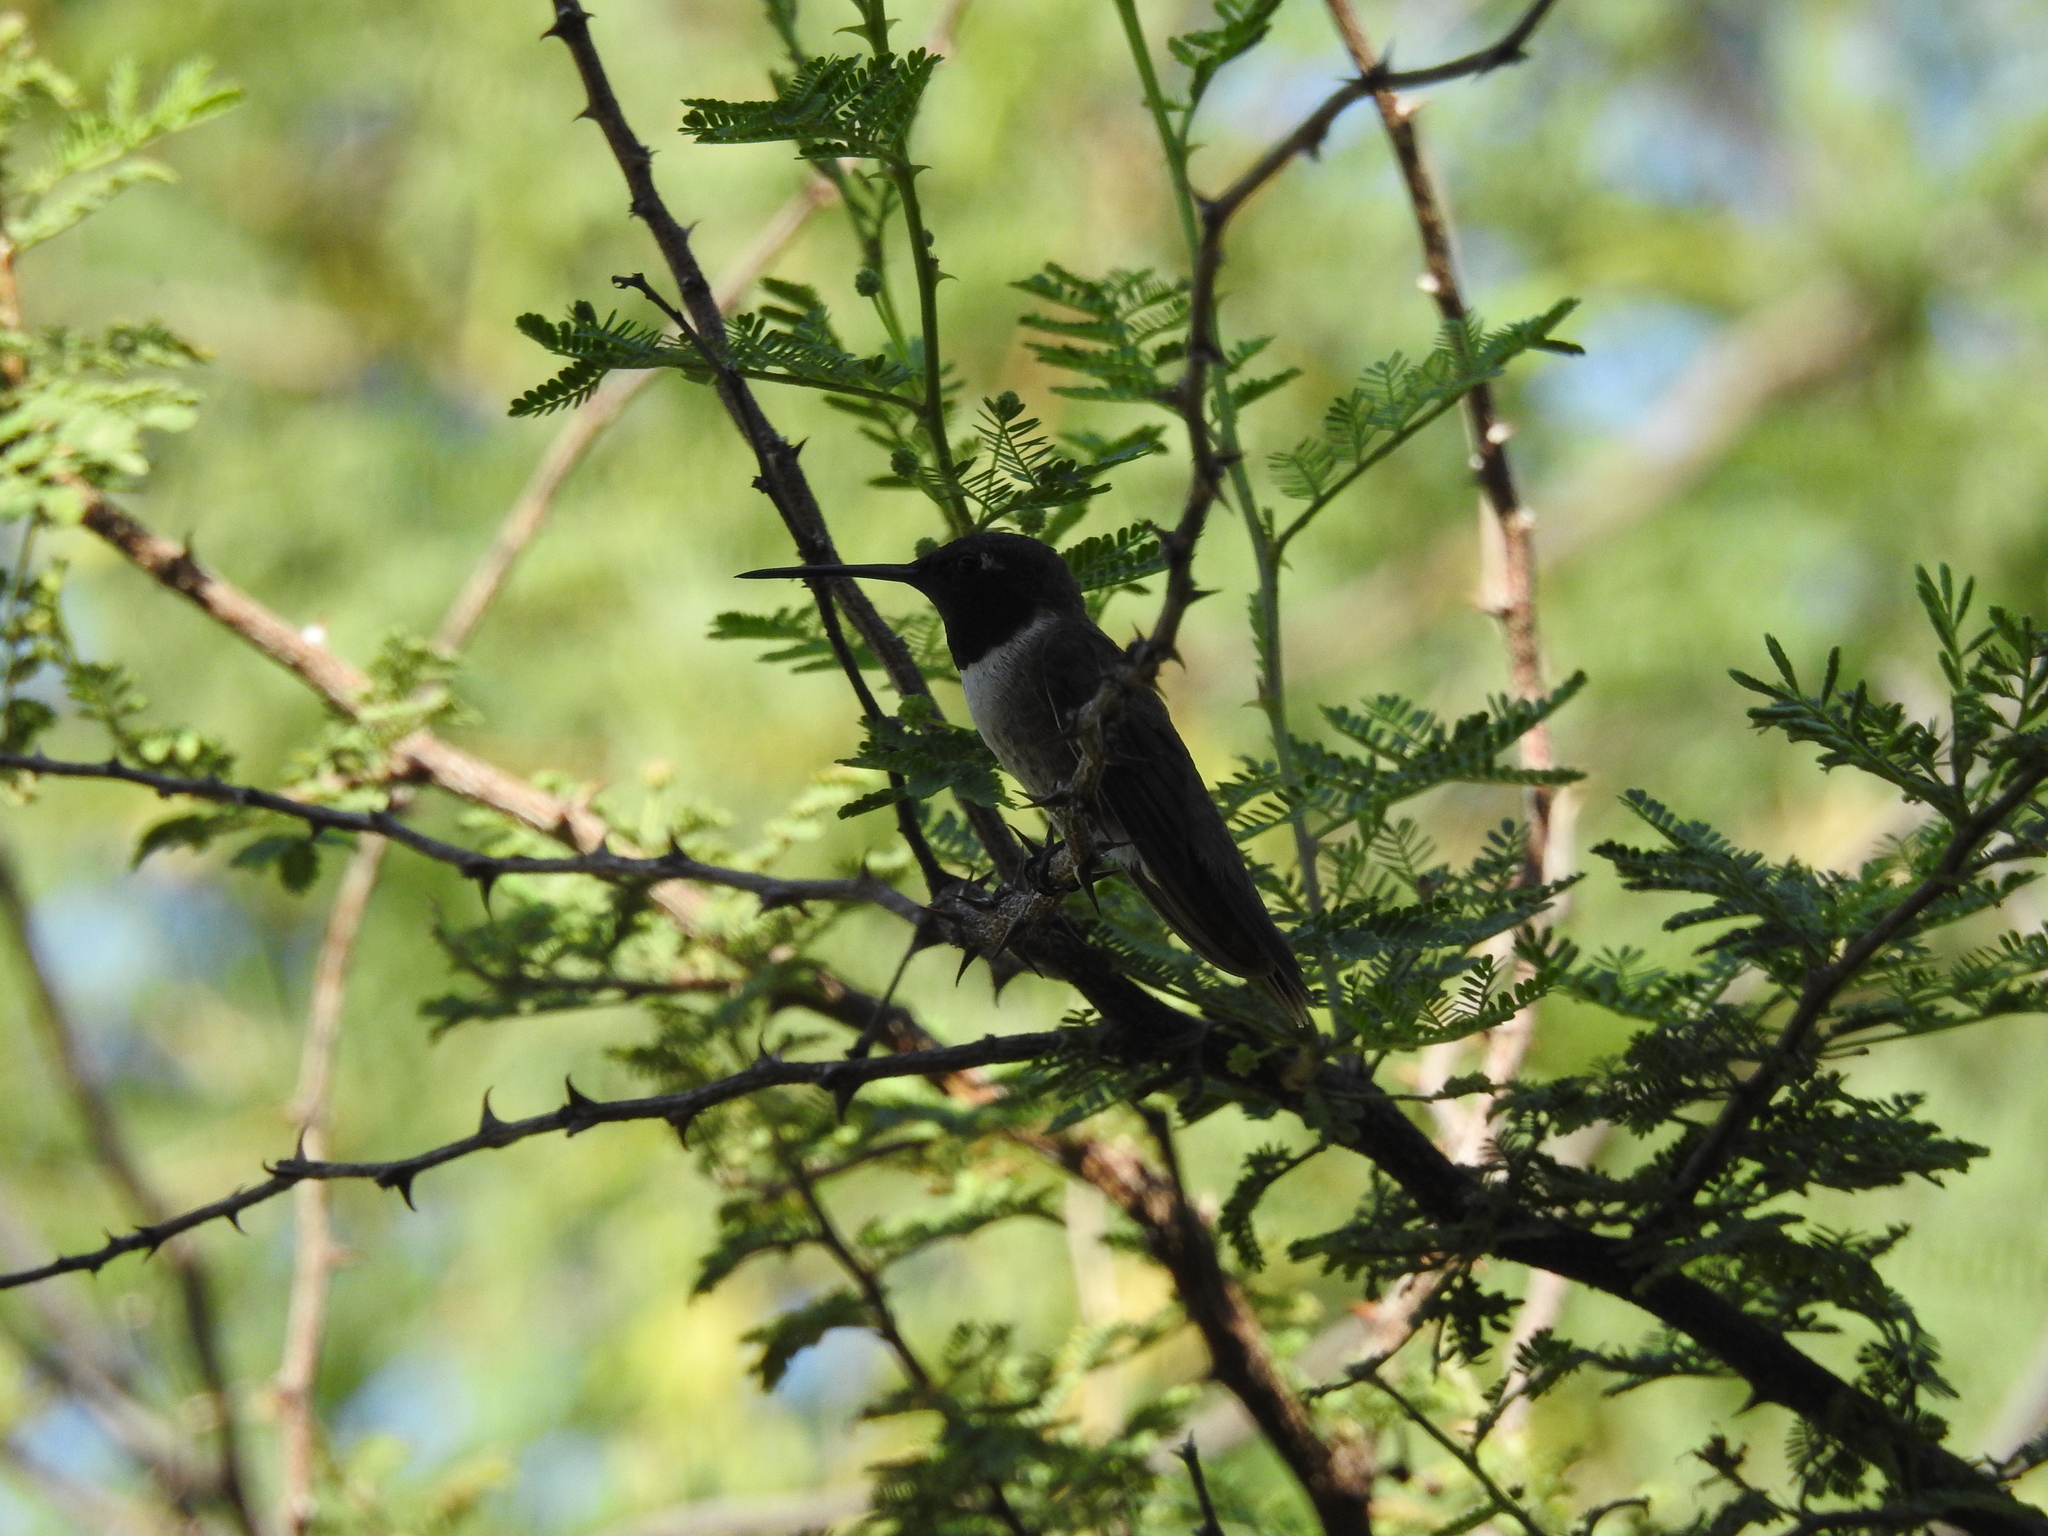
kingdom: Animalia
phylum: Chordata
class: Aves
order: Apodiformes
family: Trochilidae
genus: Archilochus
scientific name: Archilochus alexandri
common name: Black-chinned hummingbird
